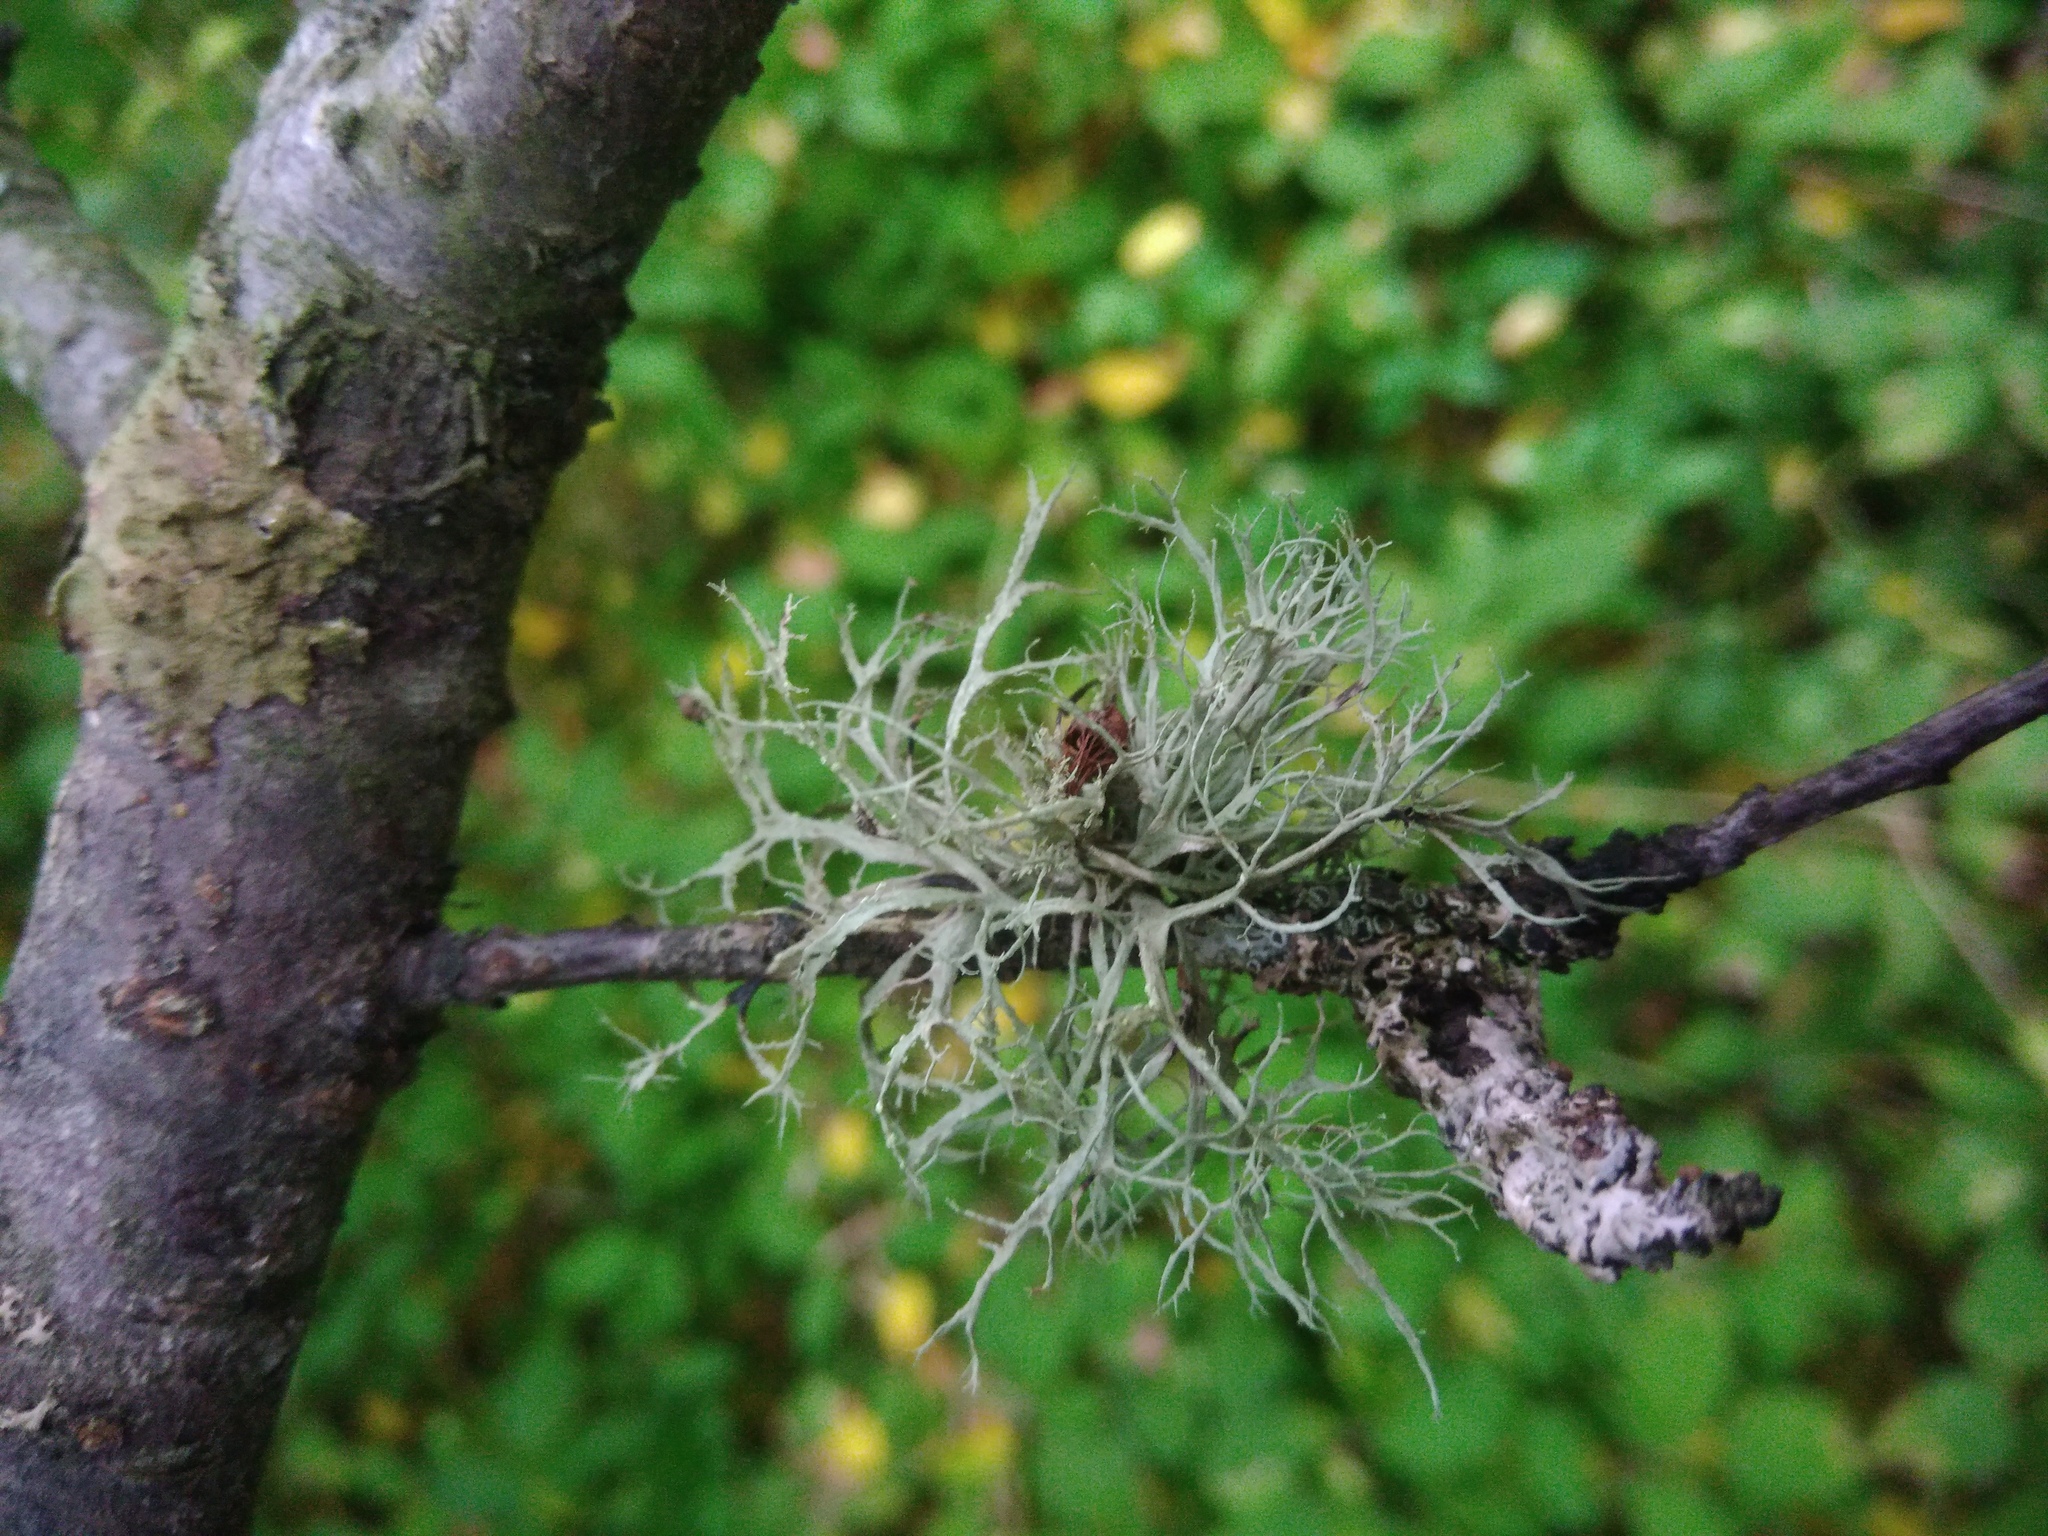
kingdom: Fungi
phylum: Ascomycota
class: Lecanoromycetes
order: Lecanorales
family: Ramalinaceae
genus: Ramalina
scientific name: Ramalina farinacea
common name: Farinose cartilage lichen
